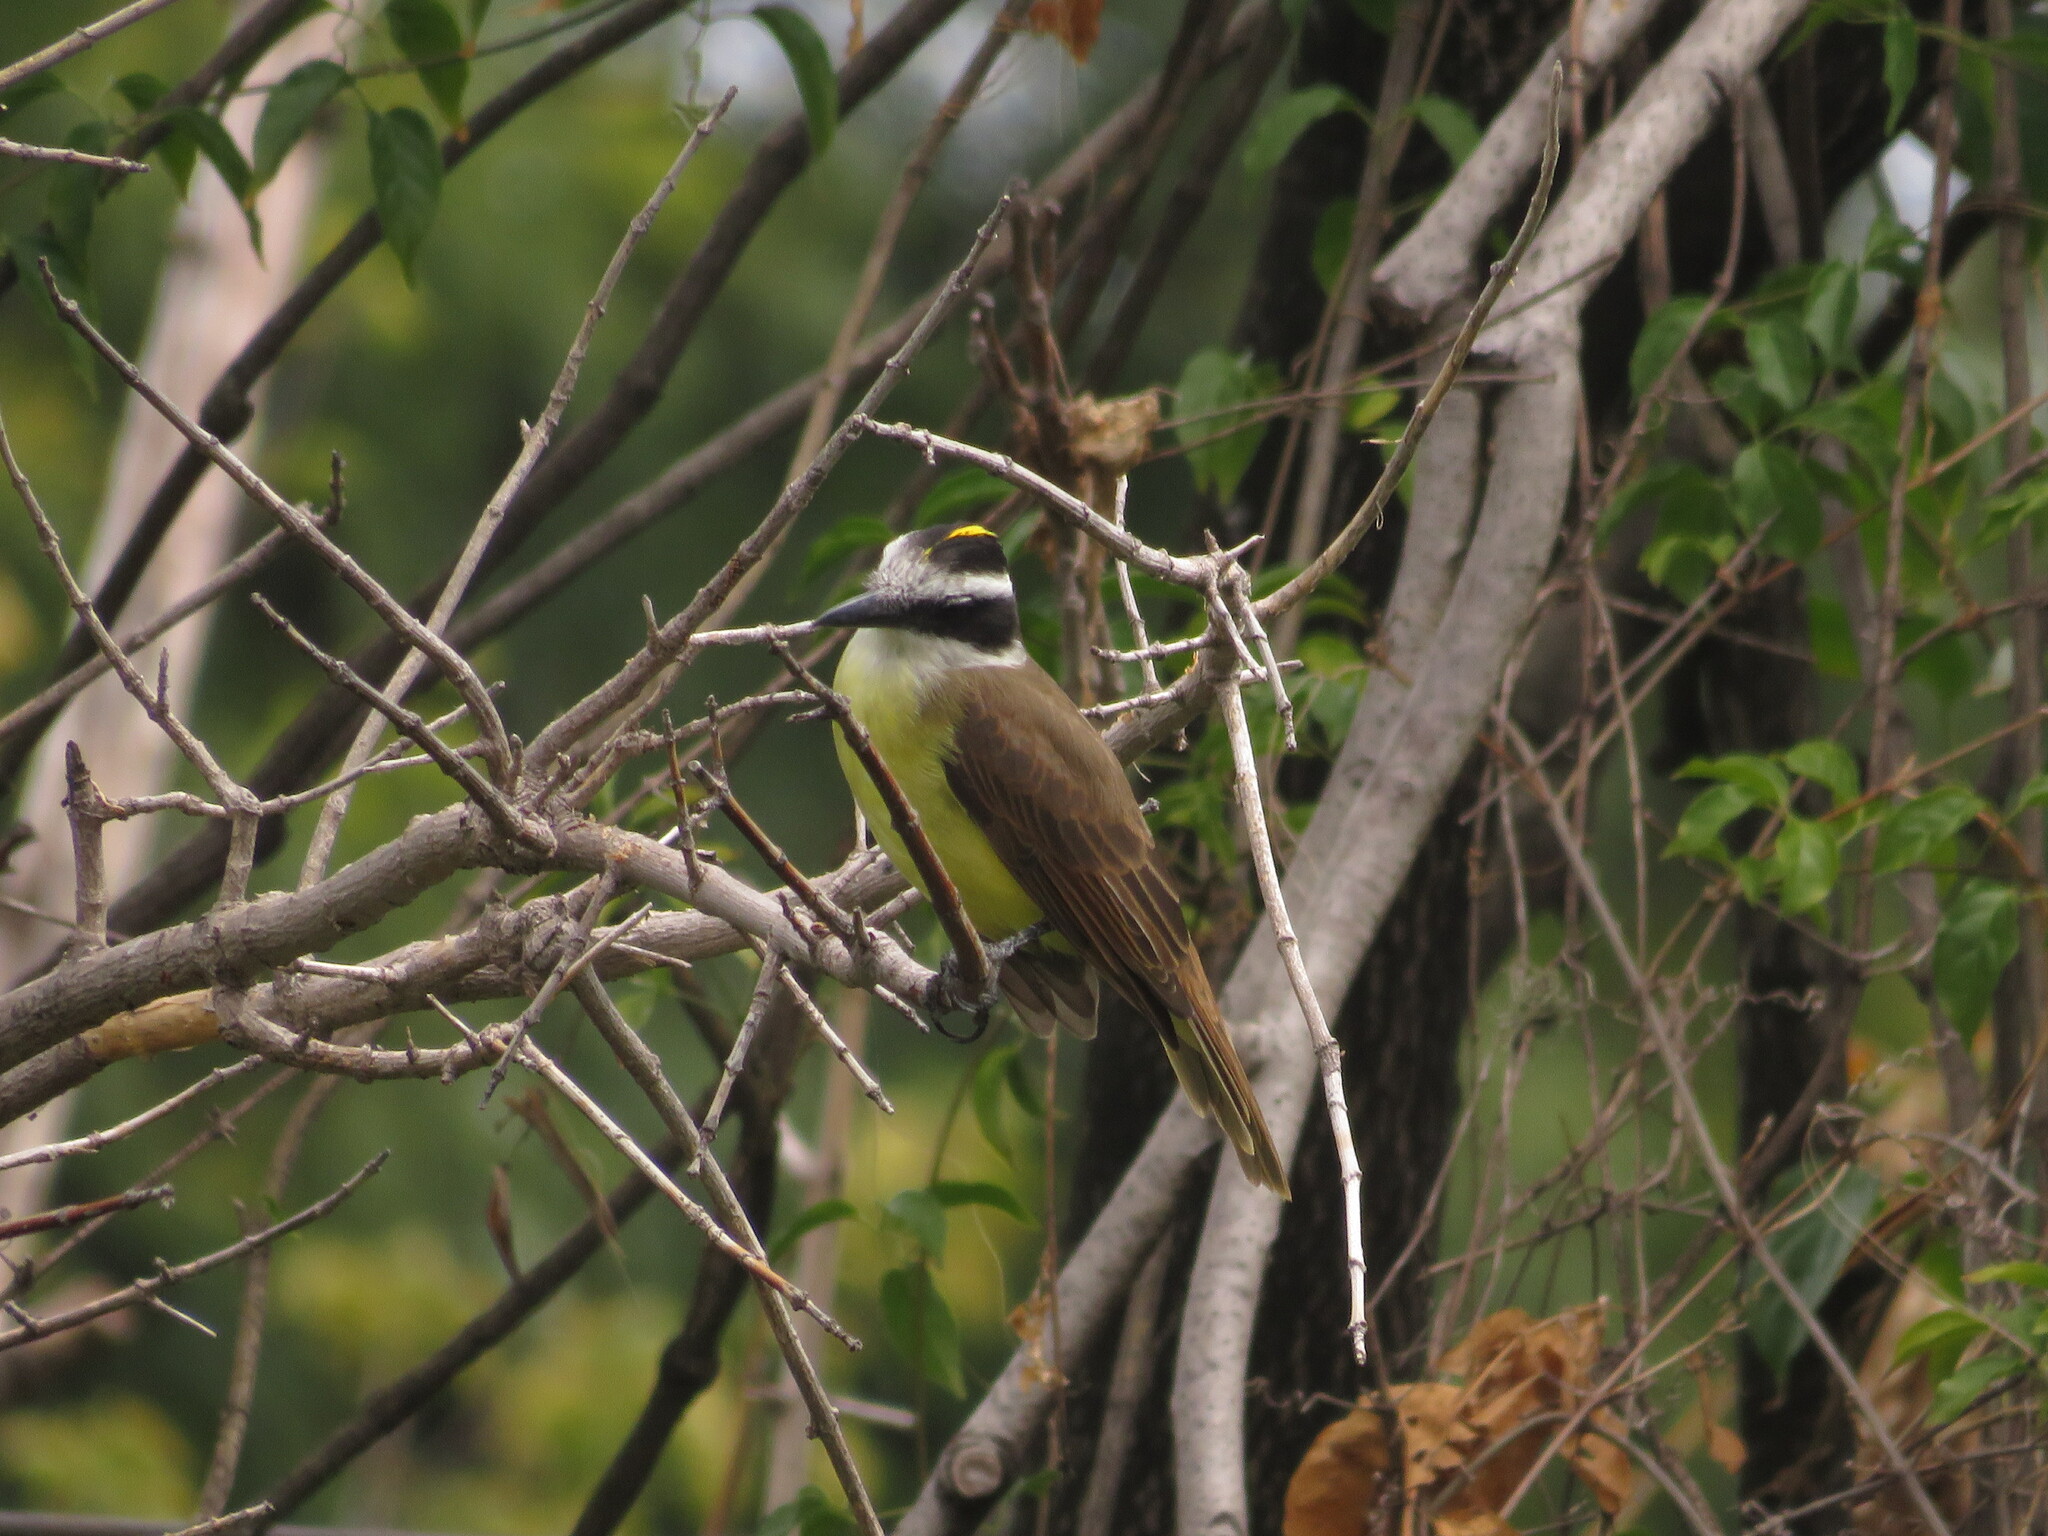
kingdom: Animalia
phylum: Chordata
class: Aves
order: Passeriformes
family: Tyrannidae
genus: Pitangus
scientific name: Pitangus sulphuratus
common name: Great kiskadee
